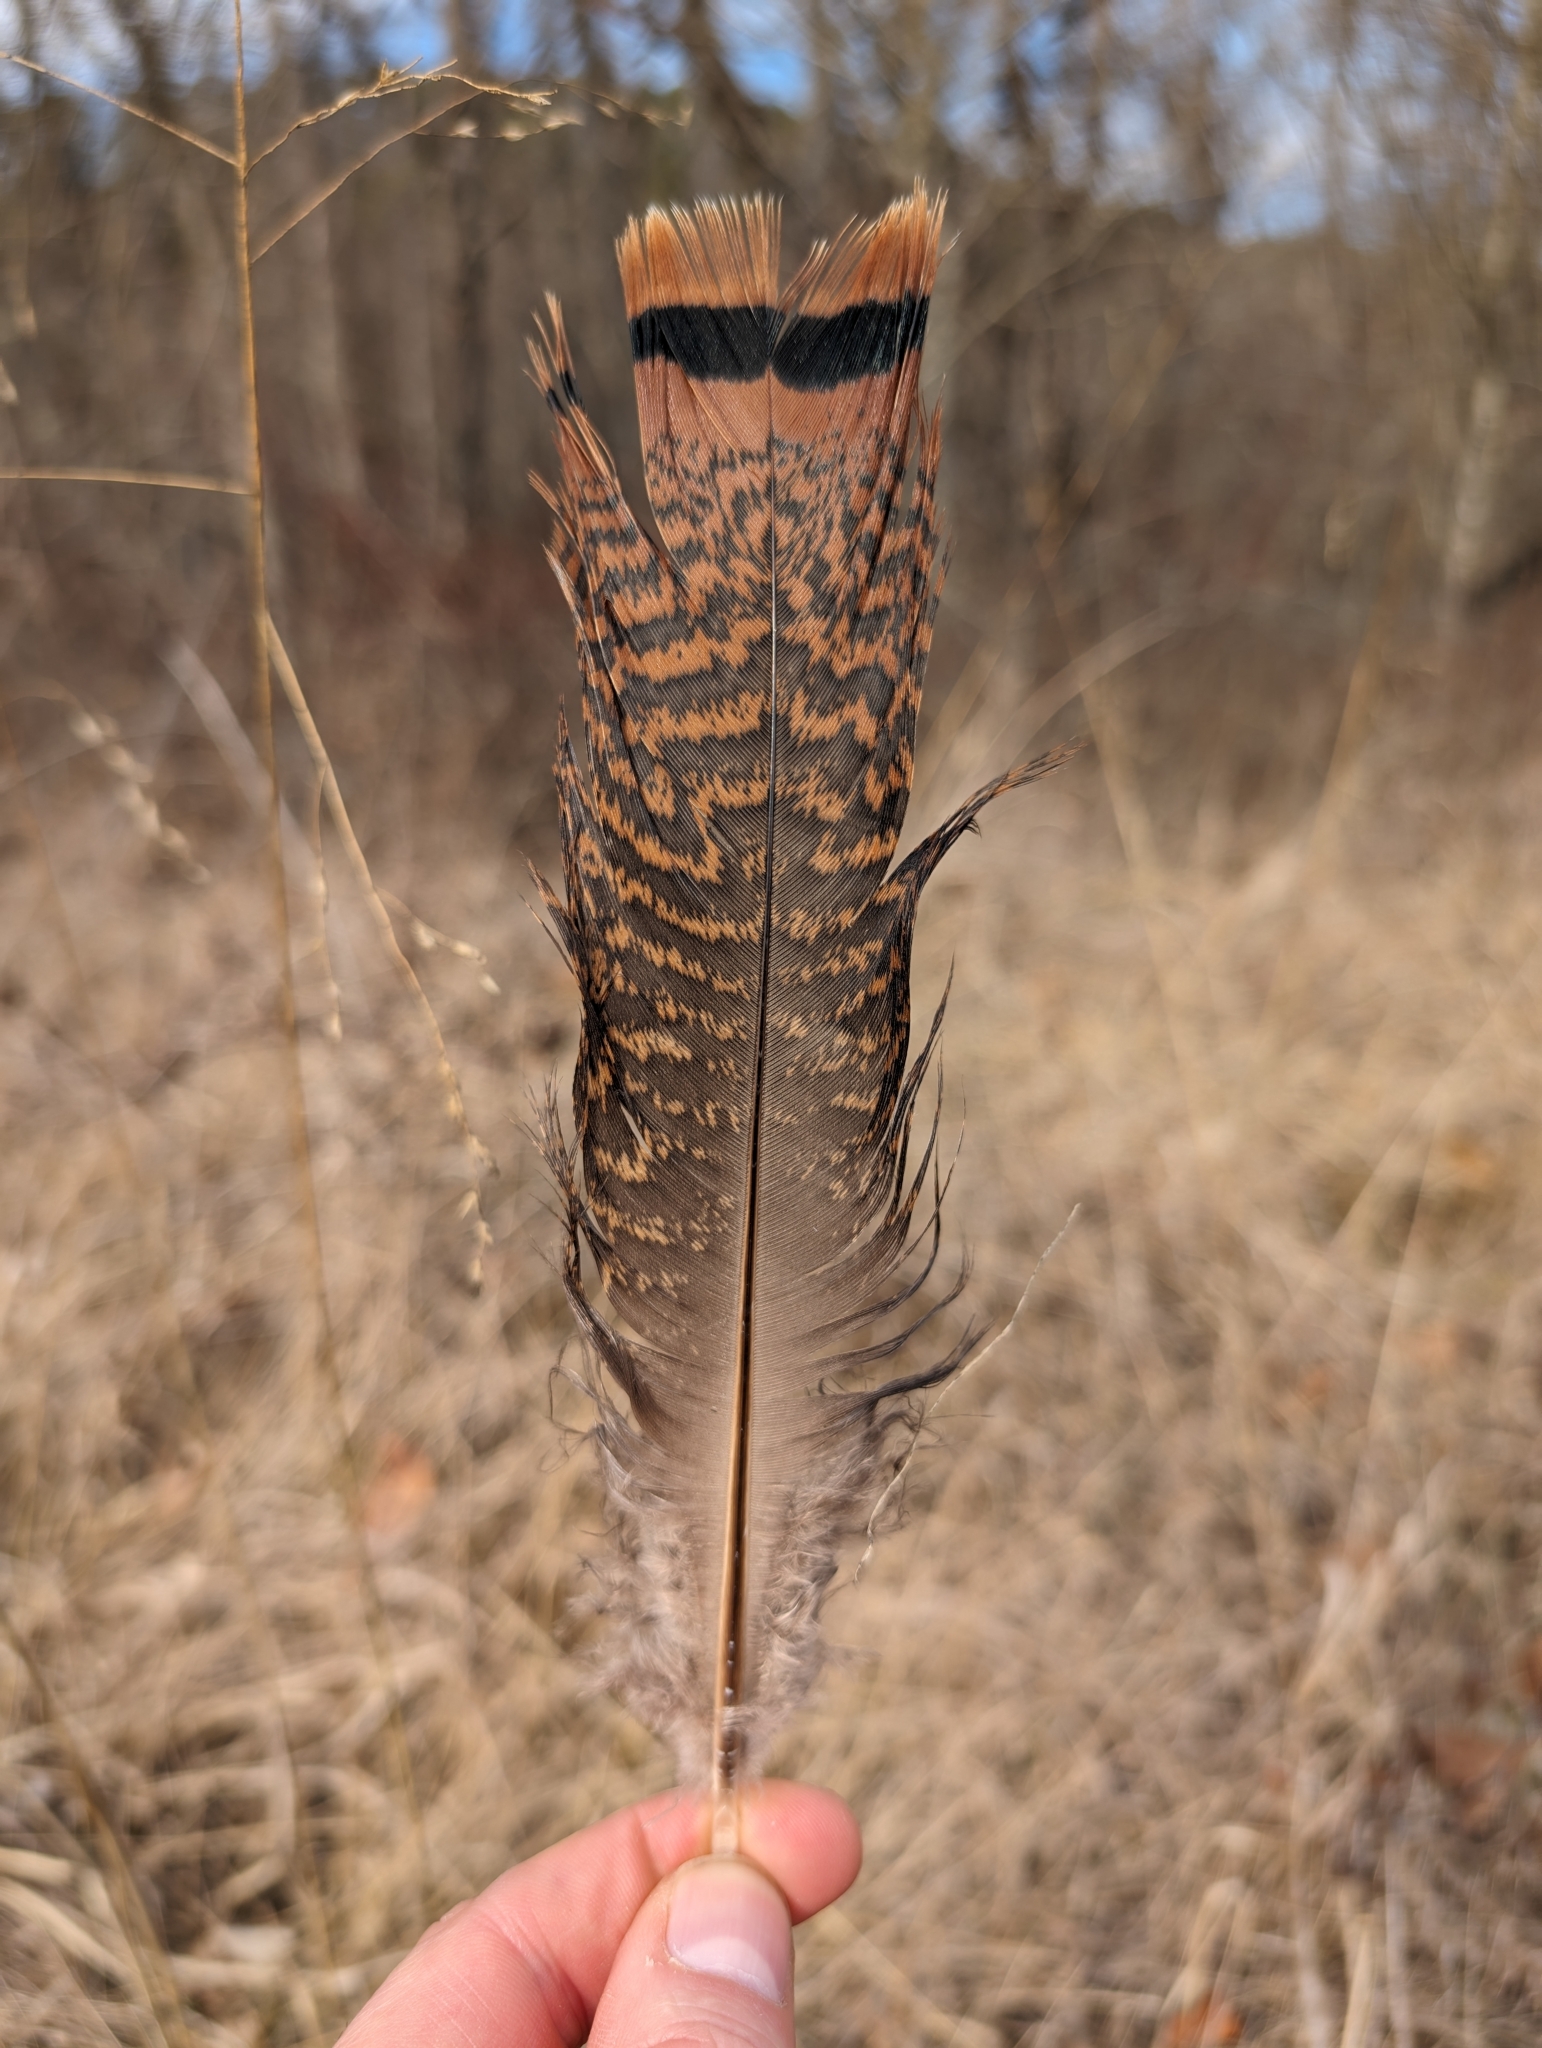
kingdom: Animalia
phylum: Chordata
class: Aves
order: Galliformes
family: Phasianidae
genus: Meleagris
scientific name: Meleagris gallopavo
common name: Wild turkey
